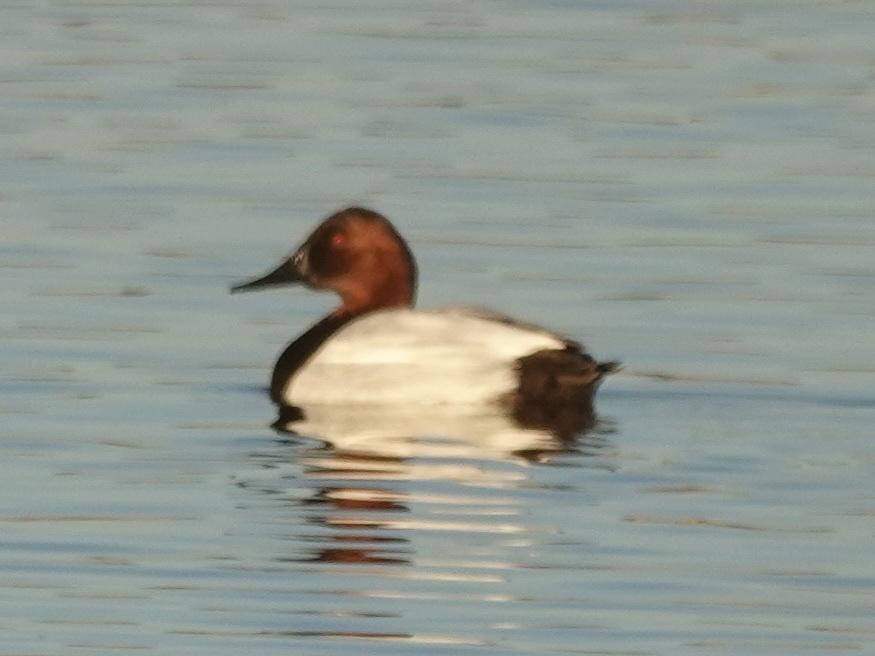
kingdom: Animalia
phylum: Chordata
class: Aves
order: Anseriformes
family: Anatidae
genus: Aythya
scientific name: Aythya valisineria
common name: Canvasback
